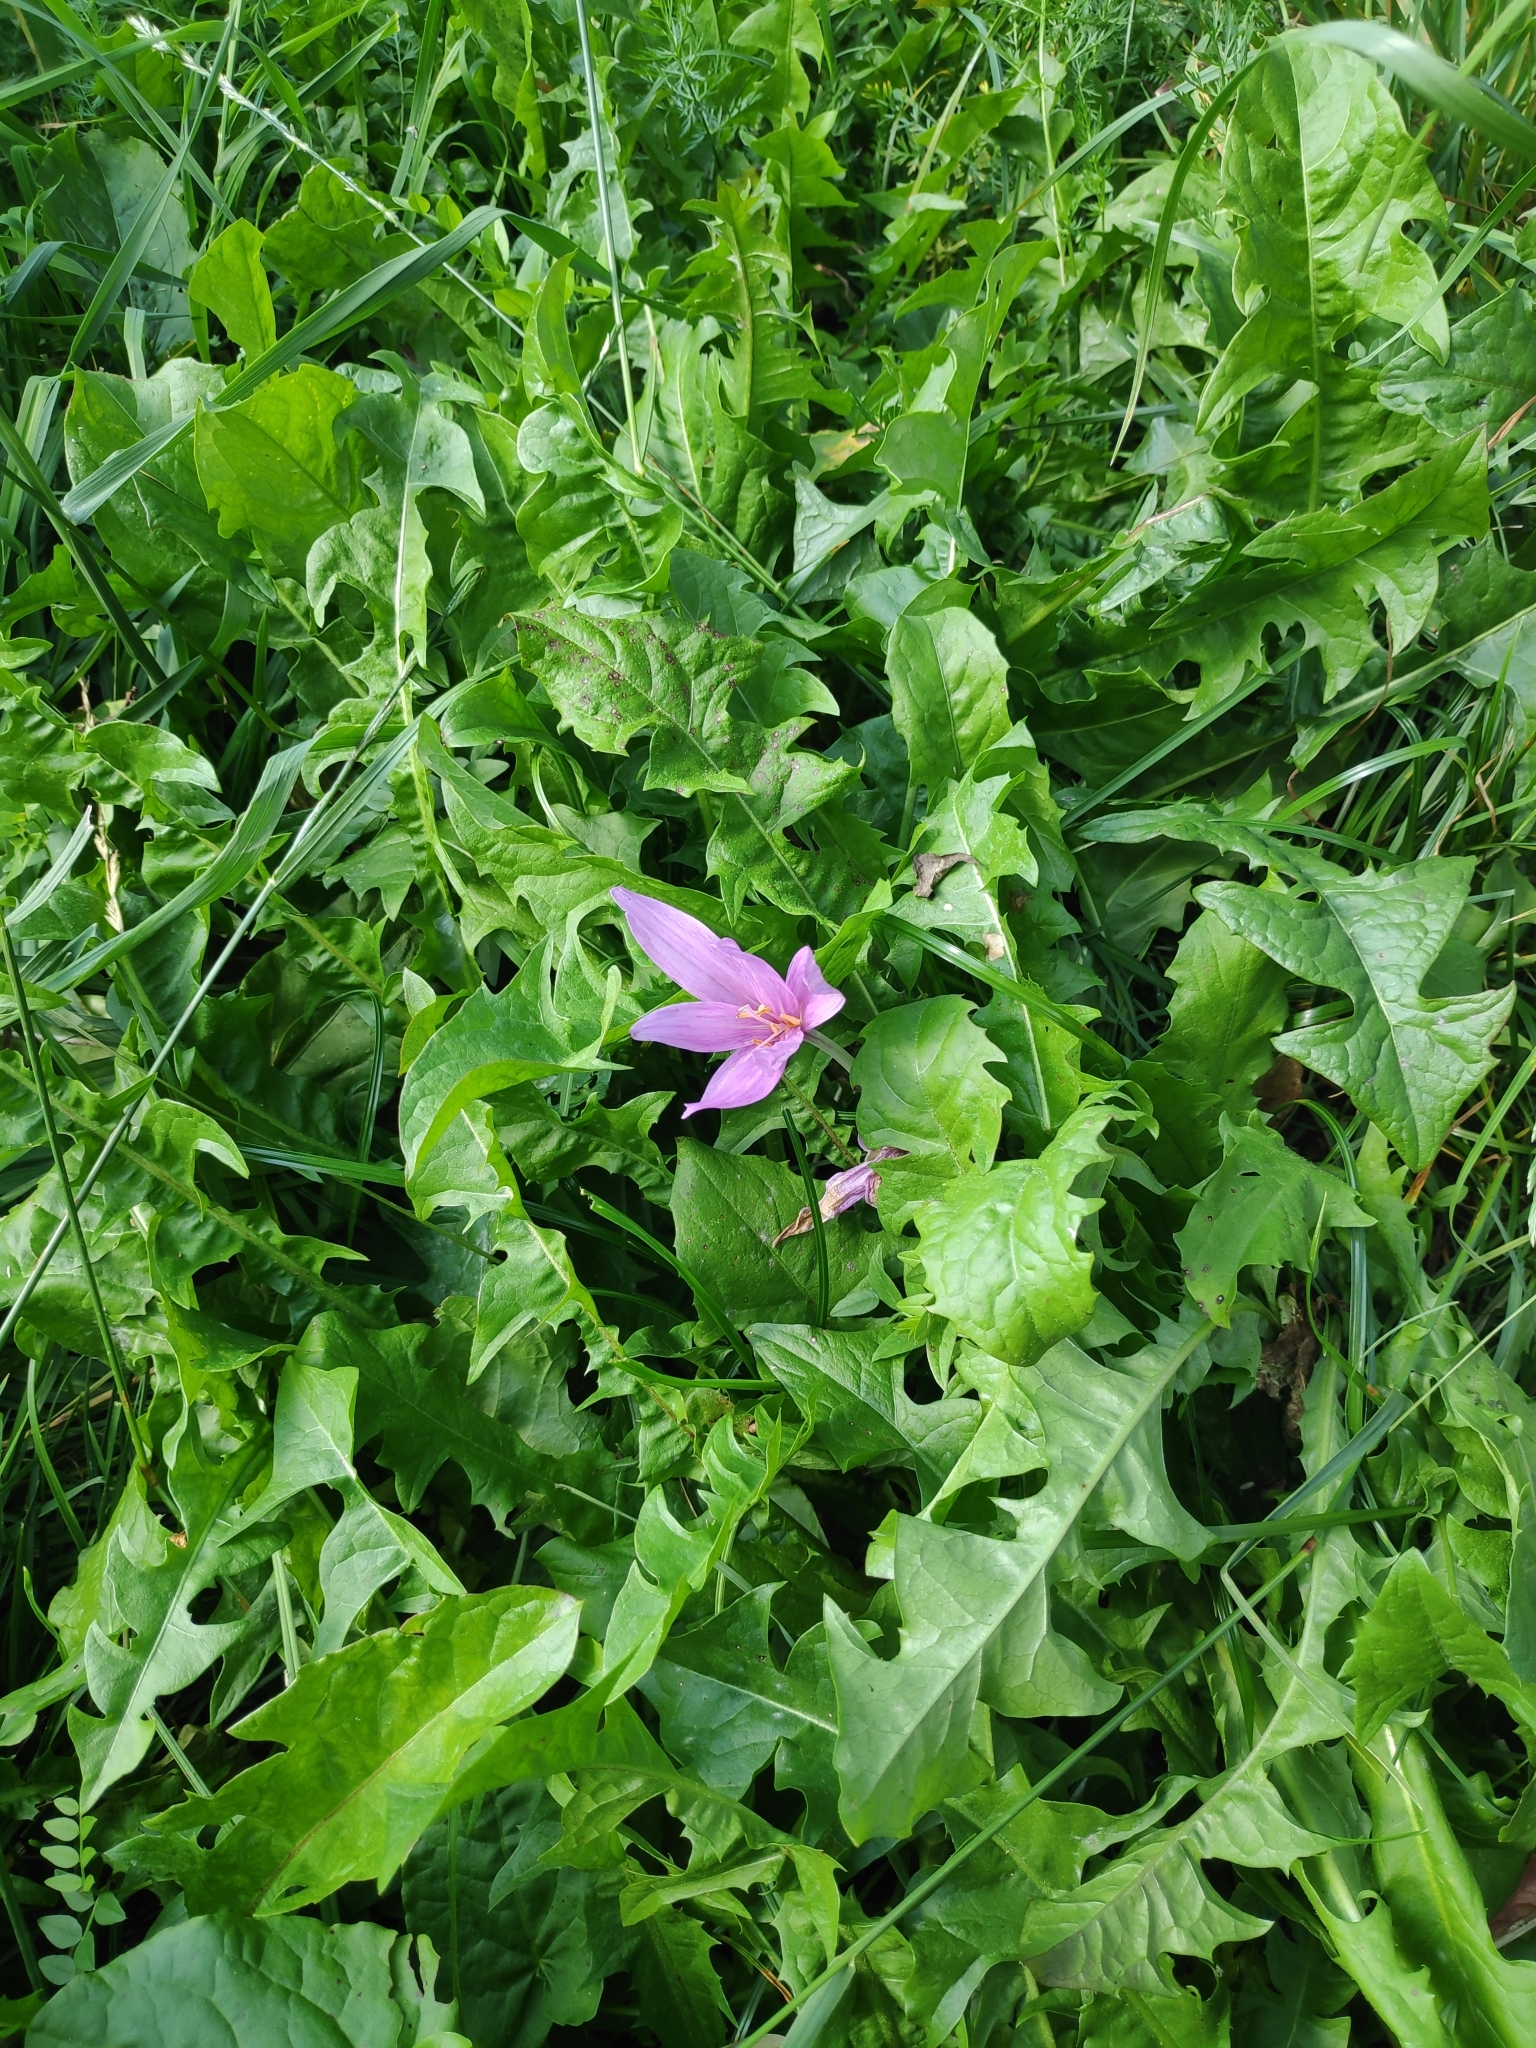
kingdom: Plantae
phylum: Tracheophyta
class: Liliopsida
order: Liliales
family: Colchicaceae
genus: Colchicum
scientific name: Colchicum autumnale
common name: Autumn crocus
